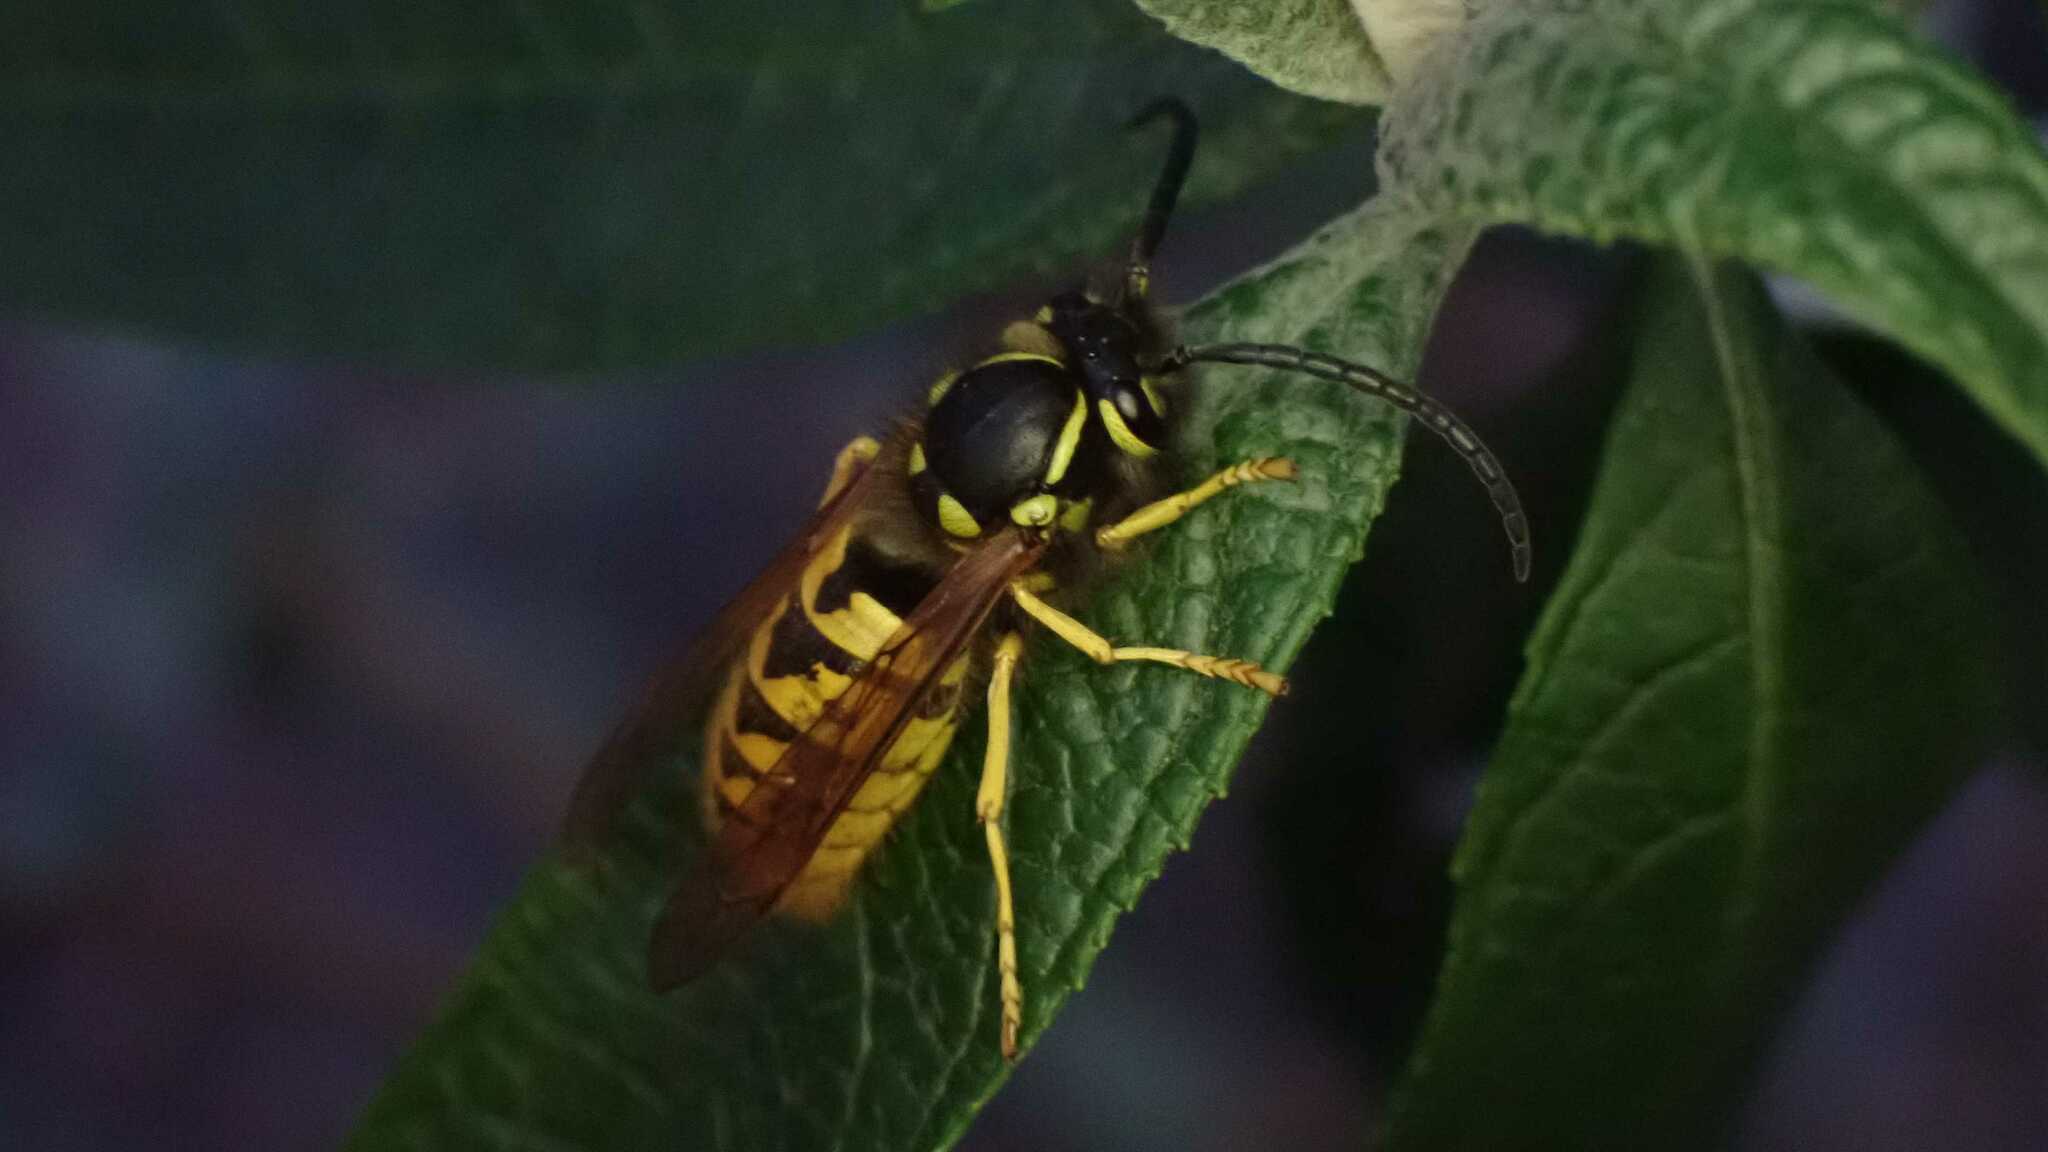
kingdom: Animalia
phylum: Arthropoda
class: Insecta
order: Hymenoptera
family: Vespidae
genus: Vespula
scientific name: Vespula germanica
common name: German wasp
